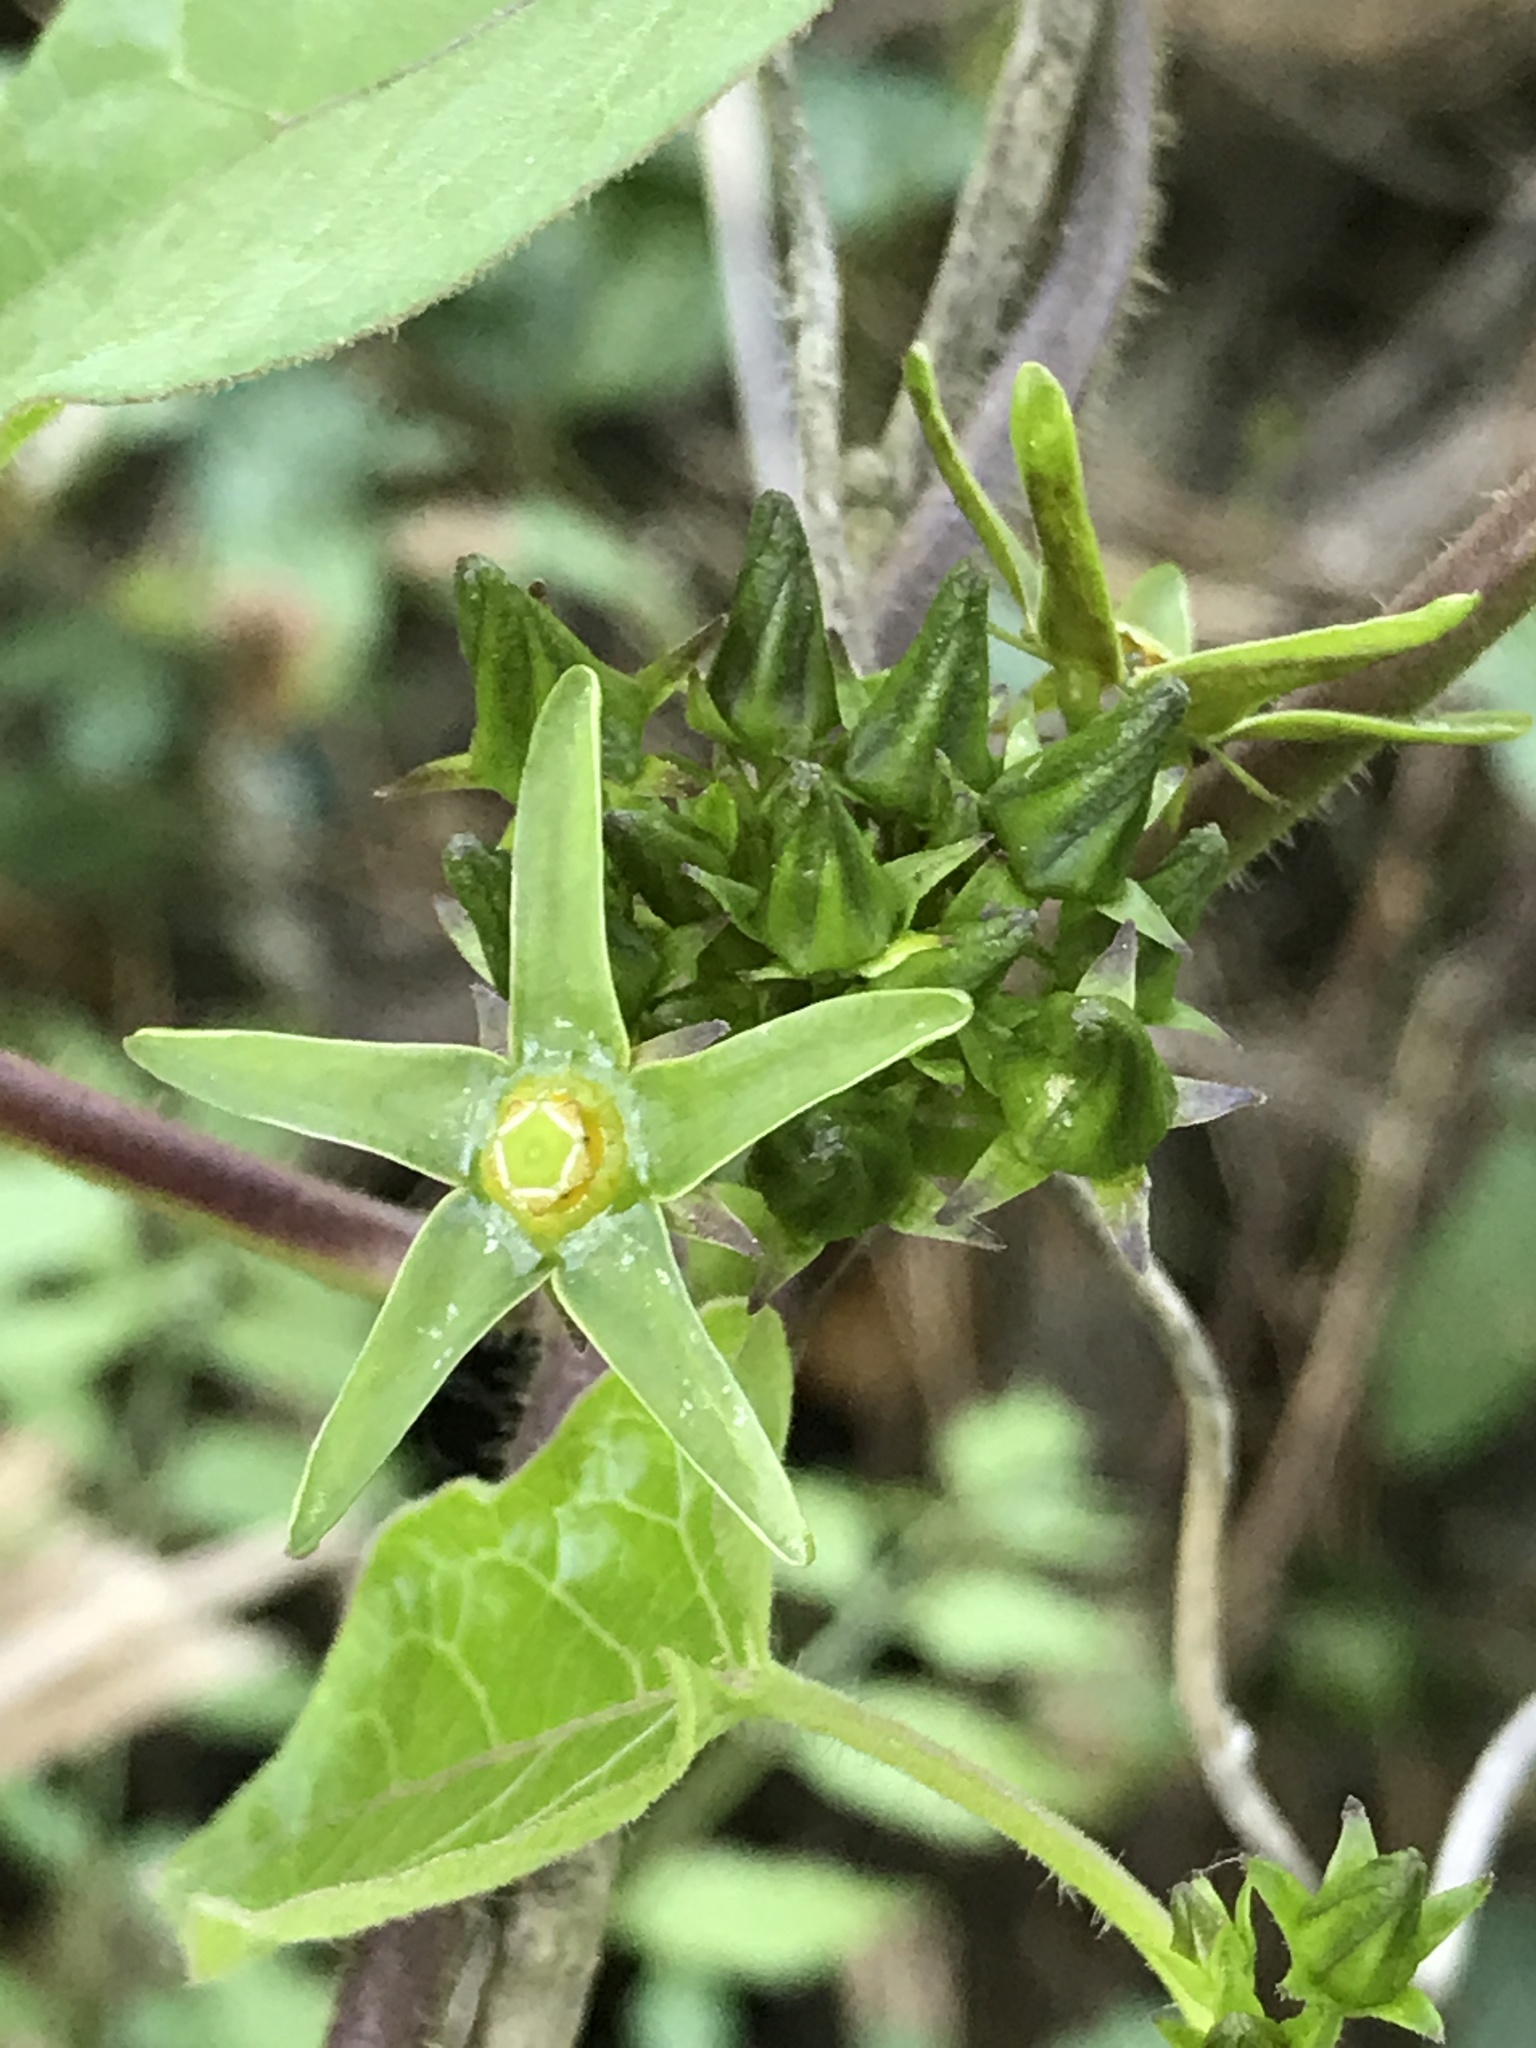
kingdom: Plantae
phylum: Tracheophyta
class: Magnoliopsida
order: Gentianales
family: Apocynaceae
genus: Gonolobus
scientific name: Gonolobus suberosus
